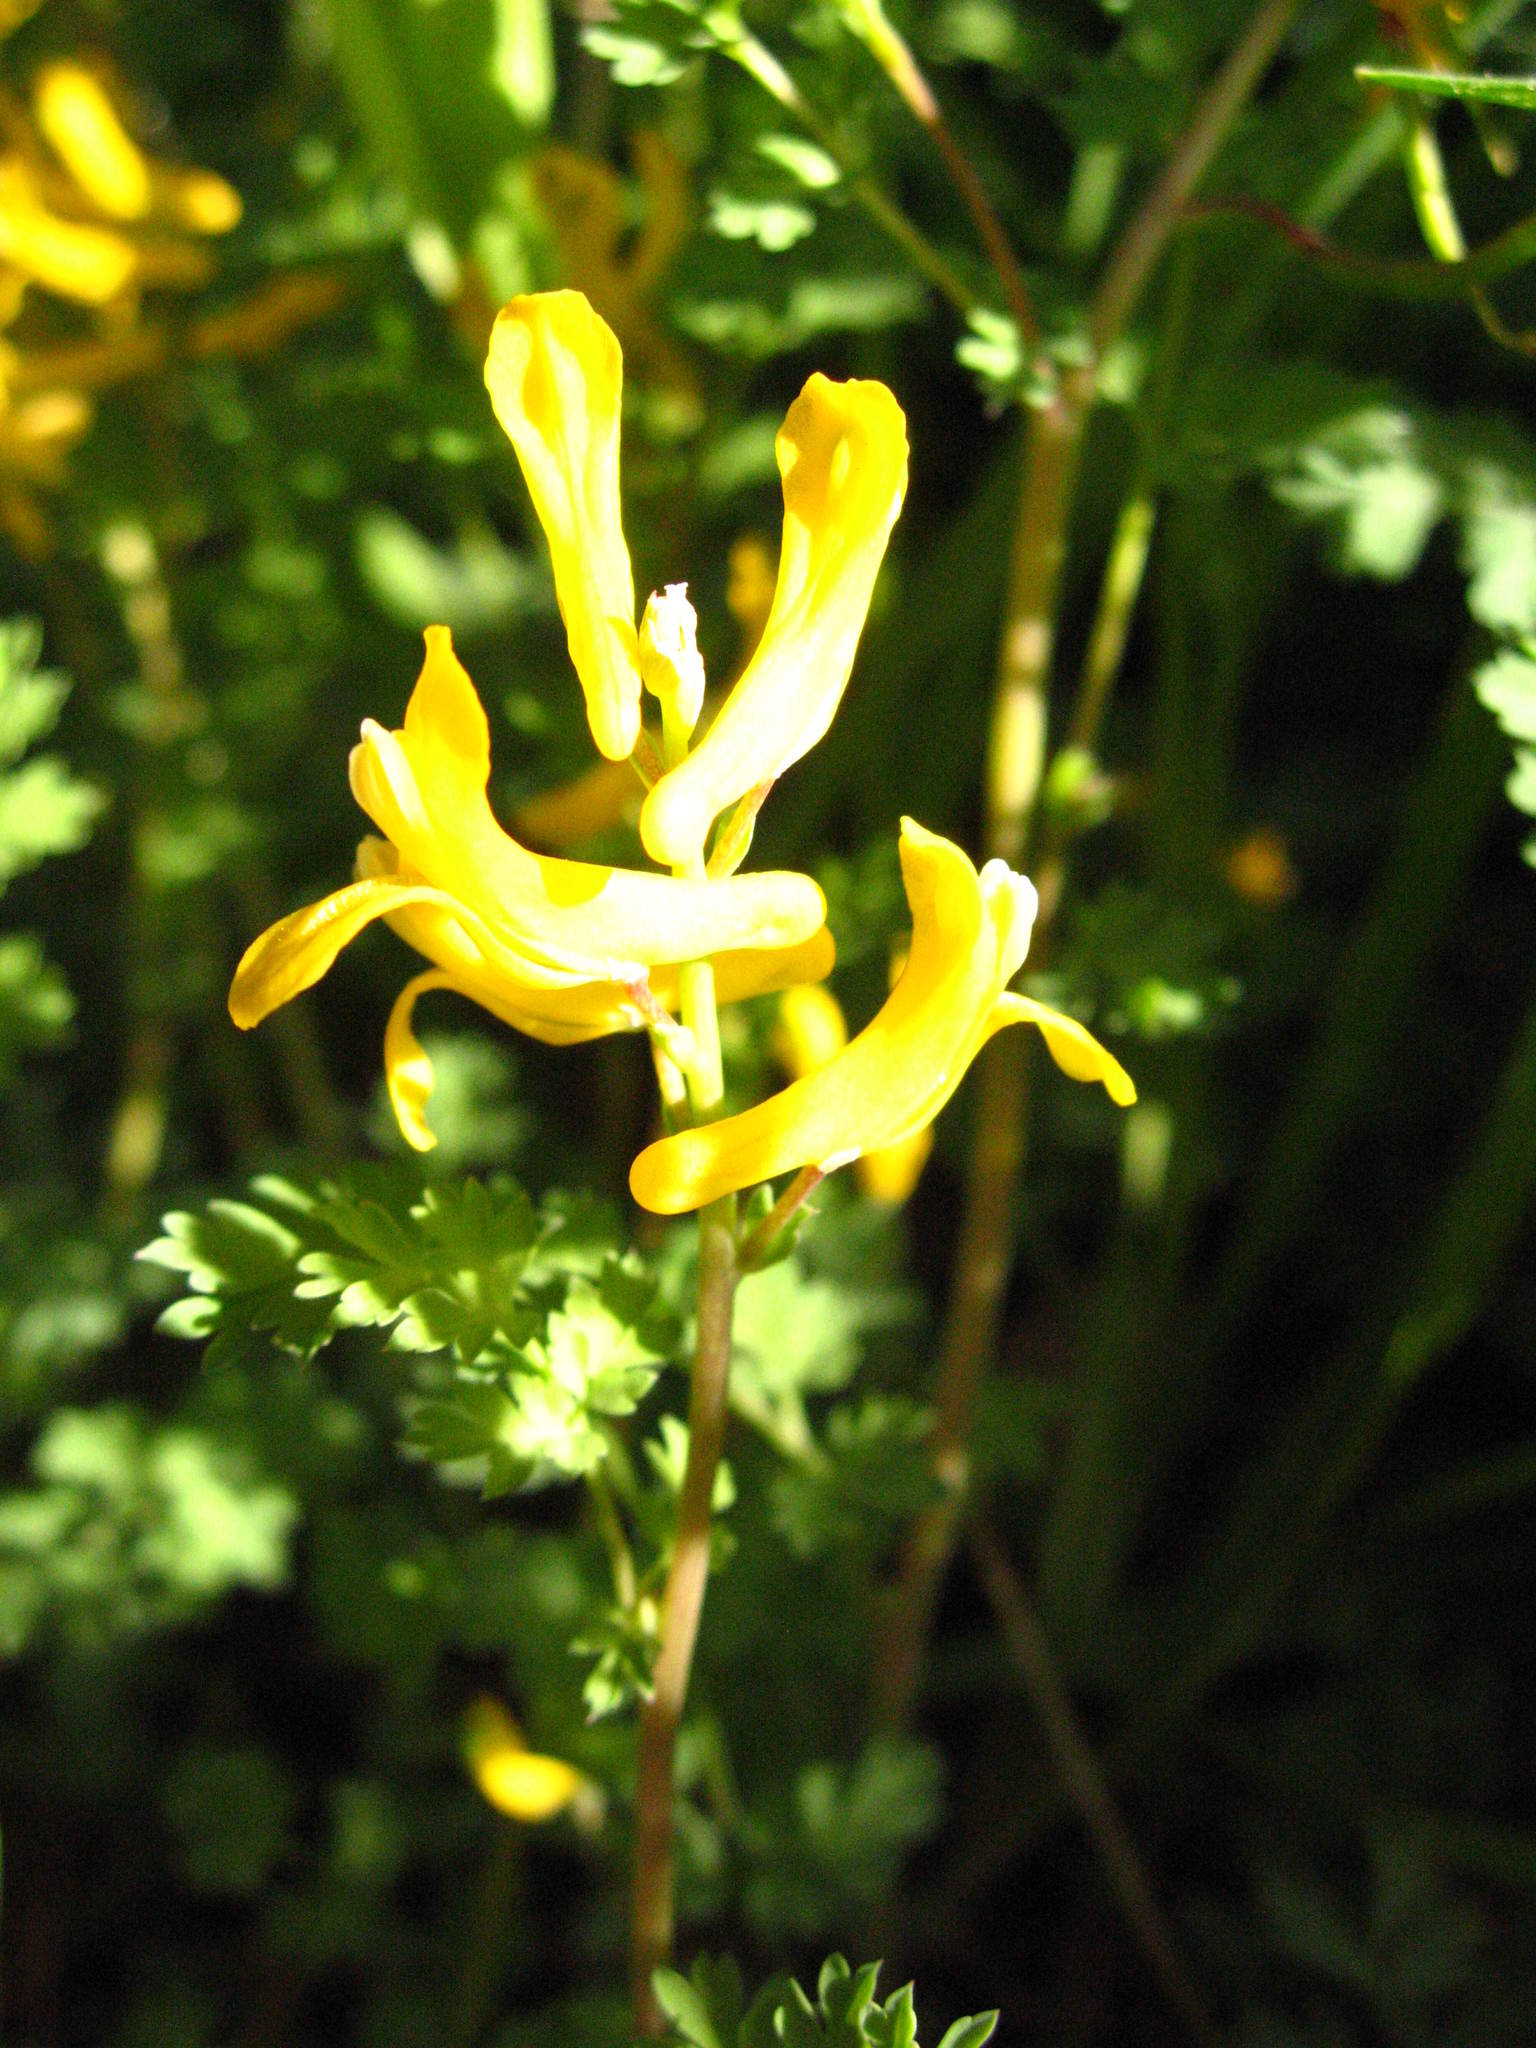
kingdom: Plantae
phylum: Tracheophyta
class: Magnoliopsida
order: Ranunculales
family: Papaveraceae
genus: Corydalis
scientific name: Corydalis aurea
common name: Golden corydalis
